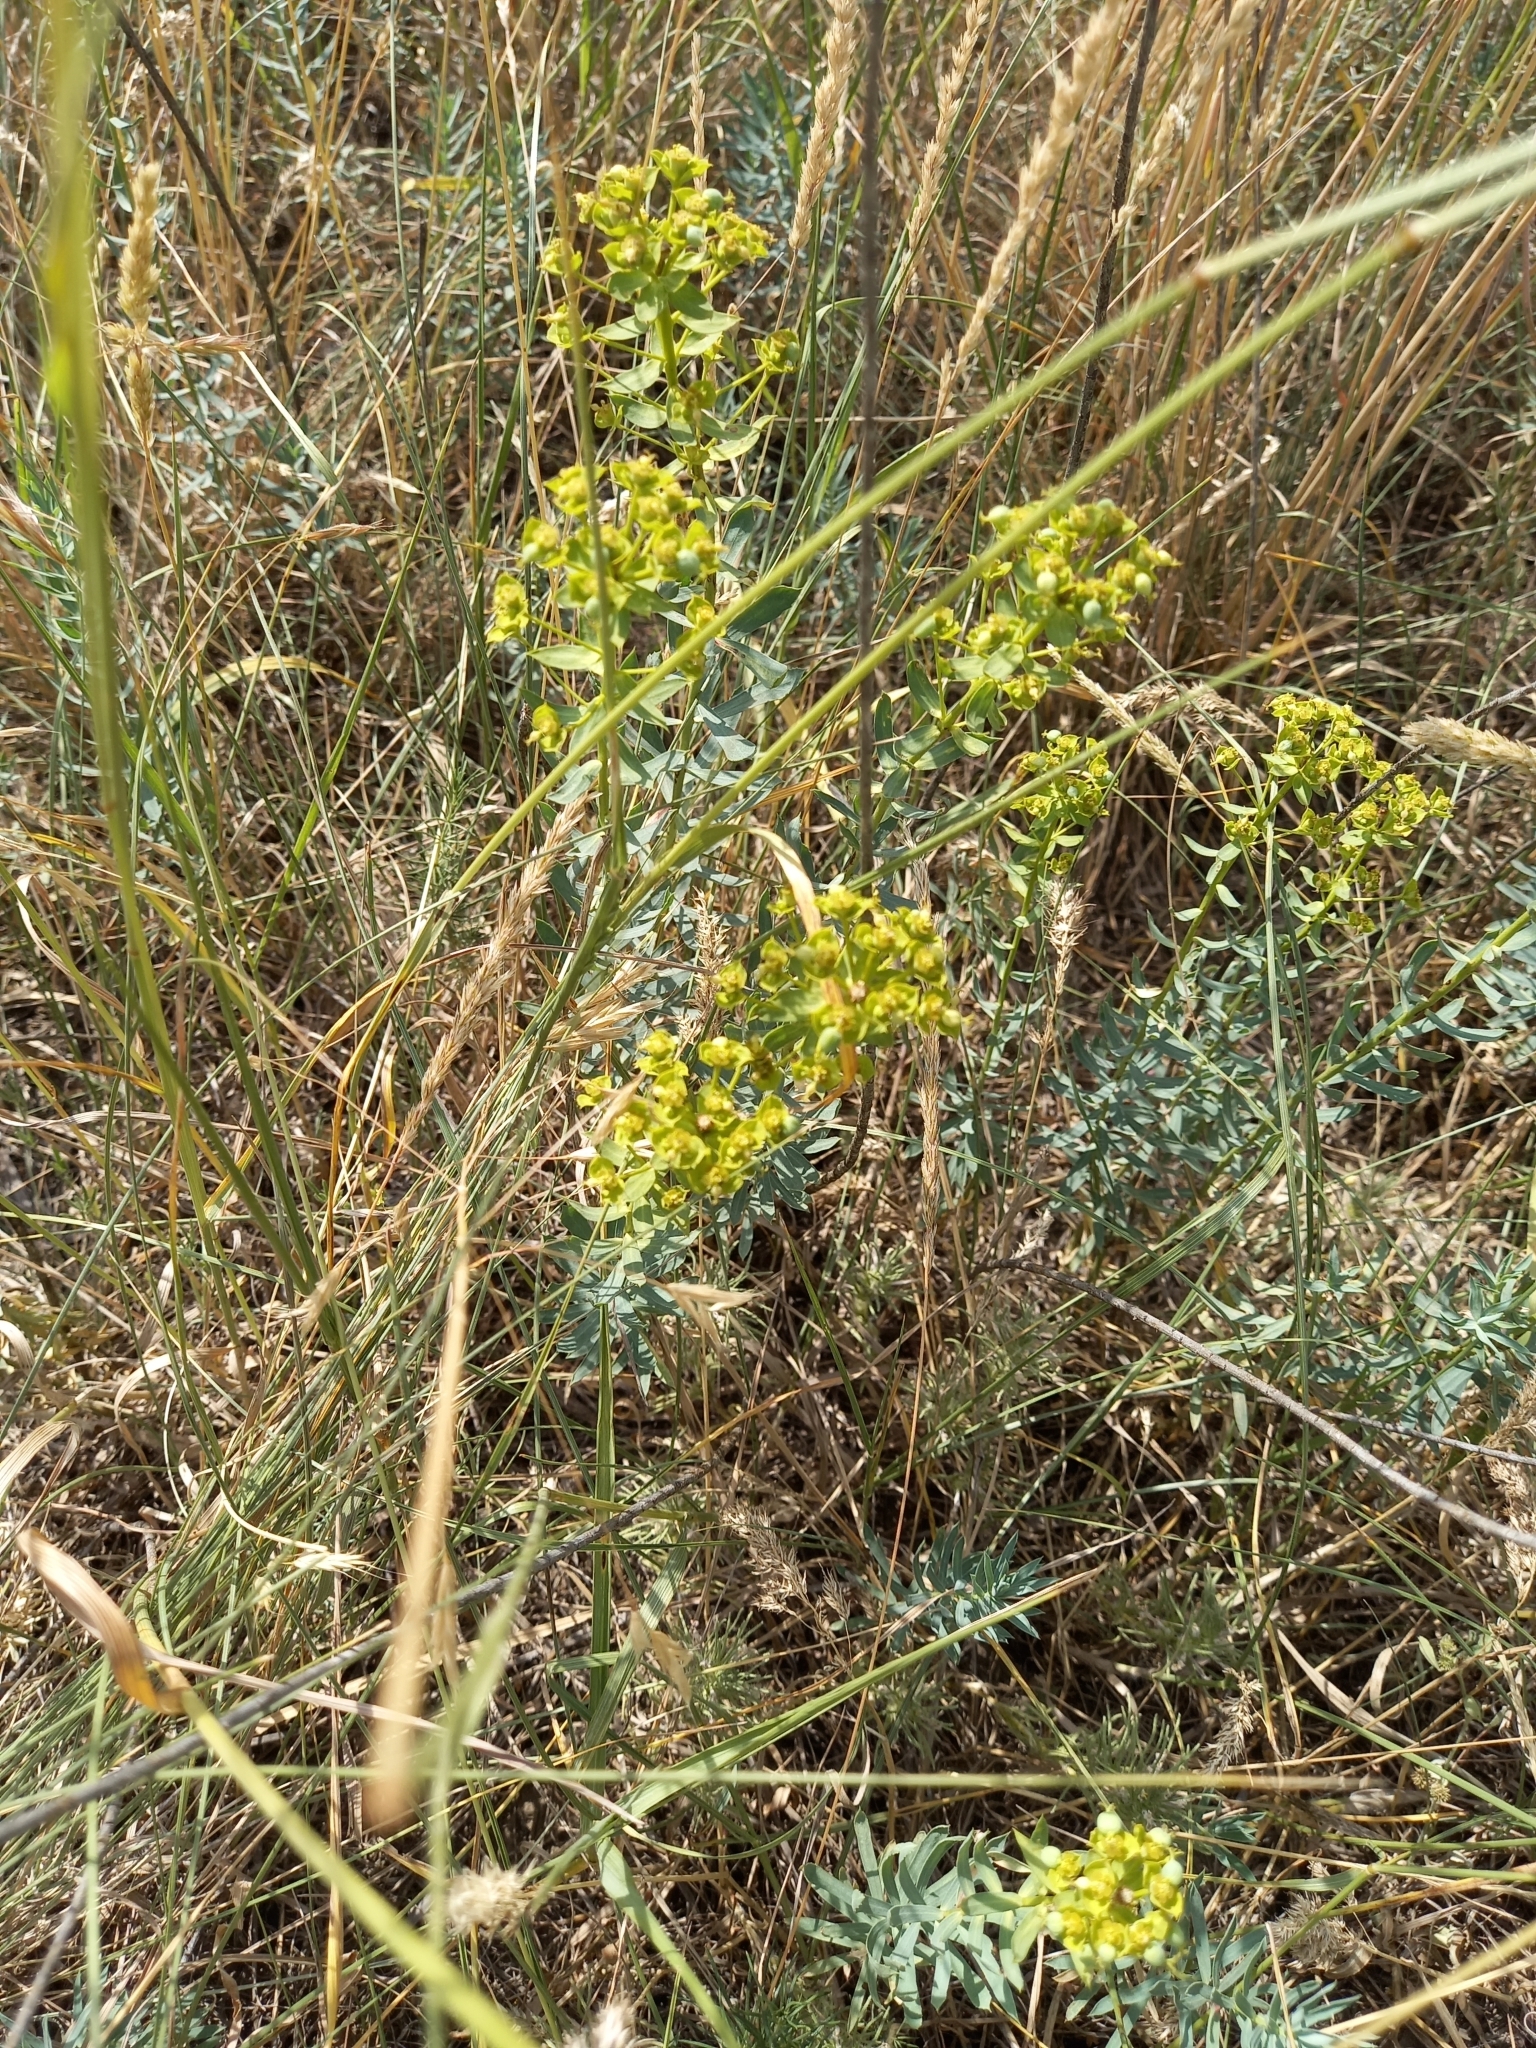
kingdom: Plantae
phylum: Tracheophyta
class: Magnoliopsida
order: Malpighiales
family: Euphorbiaceae
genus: Euphorbia
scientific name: Euphorbia stepposa
